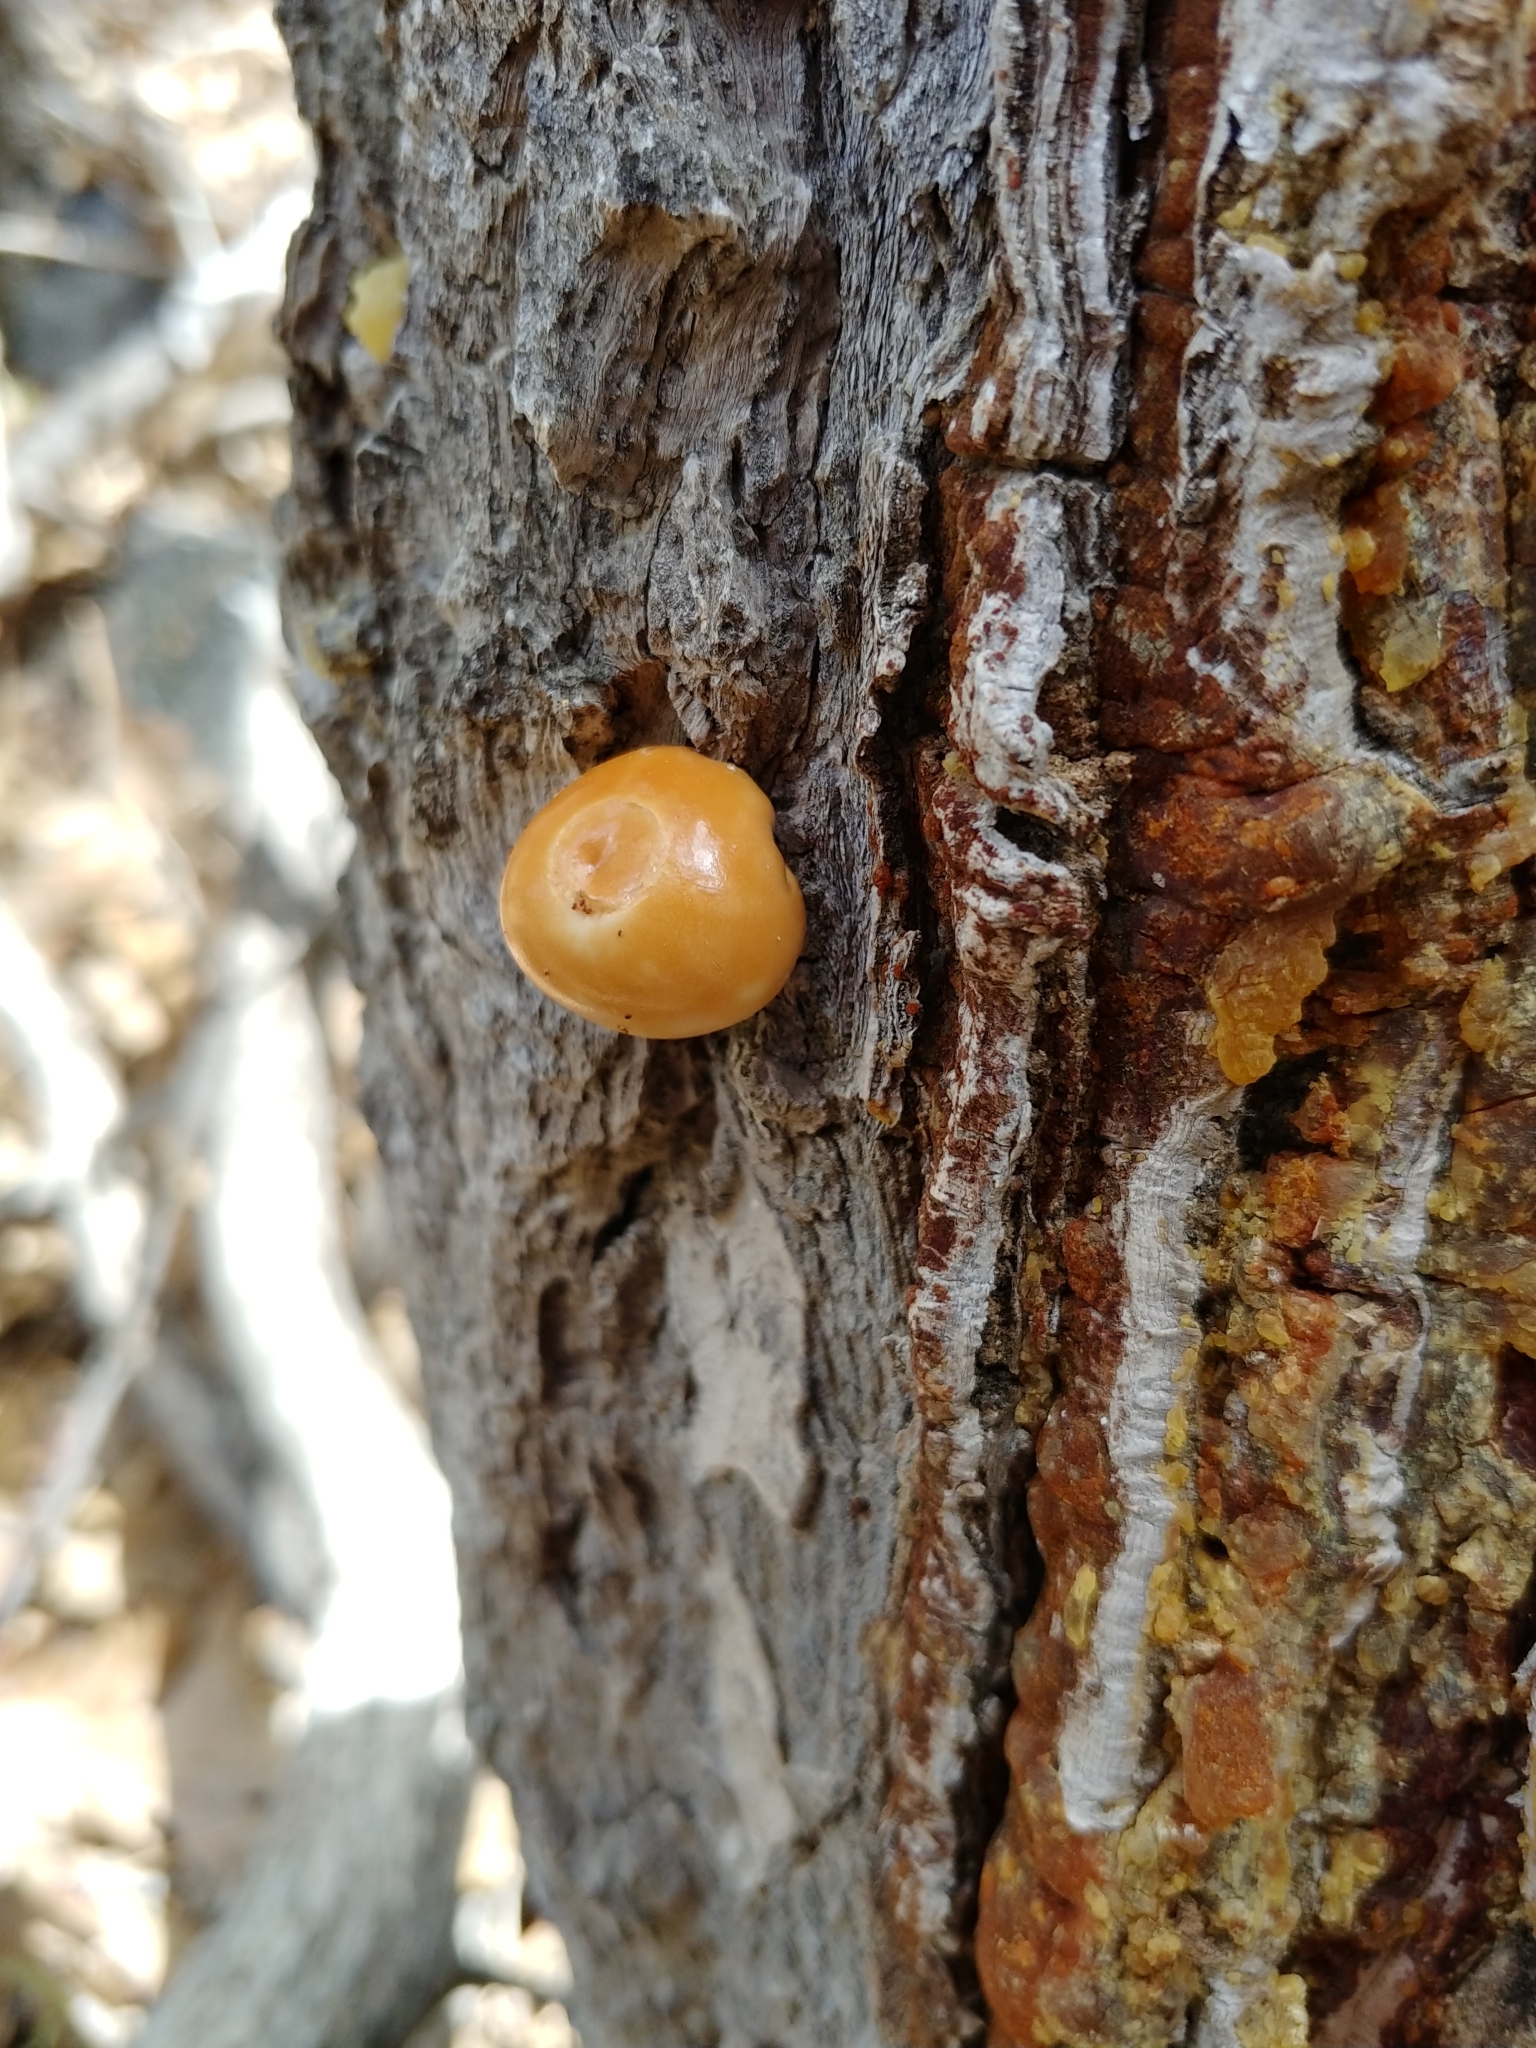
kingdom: Fungi
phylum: Basidiomycota
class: Agaricomycetes
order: Polyporales
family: Polyporaceae
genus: Cryptoporus
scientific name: Cryptoporus volvatus
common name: Veiled polypore
